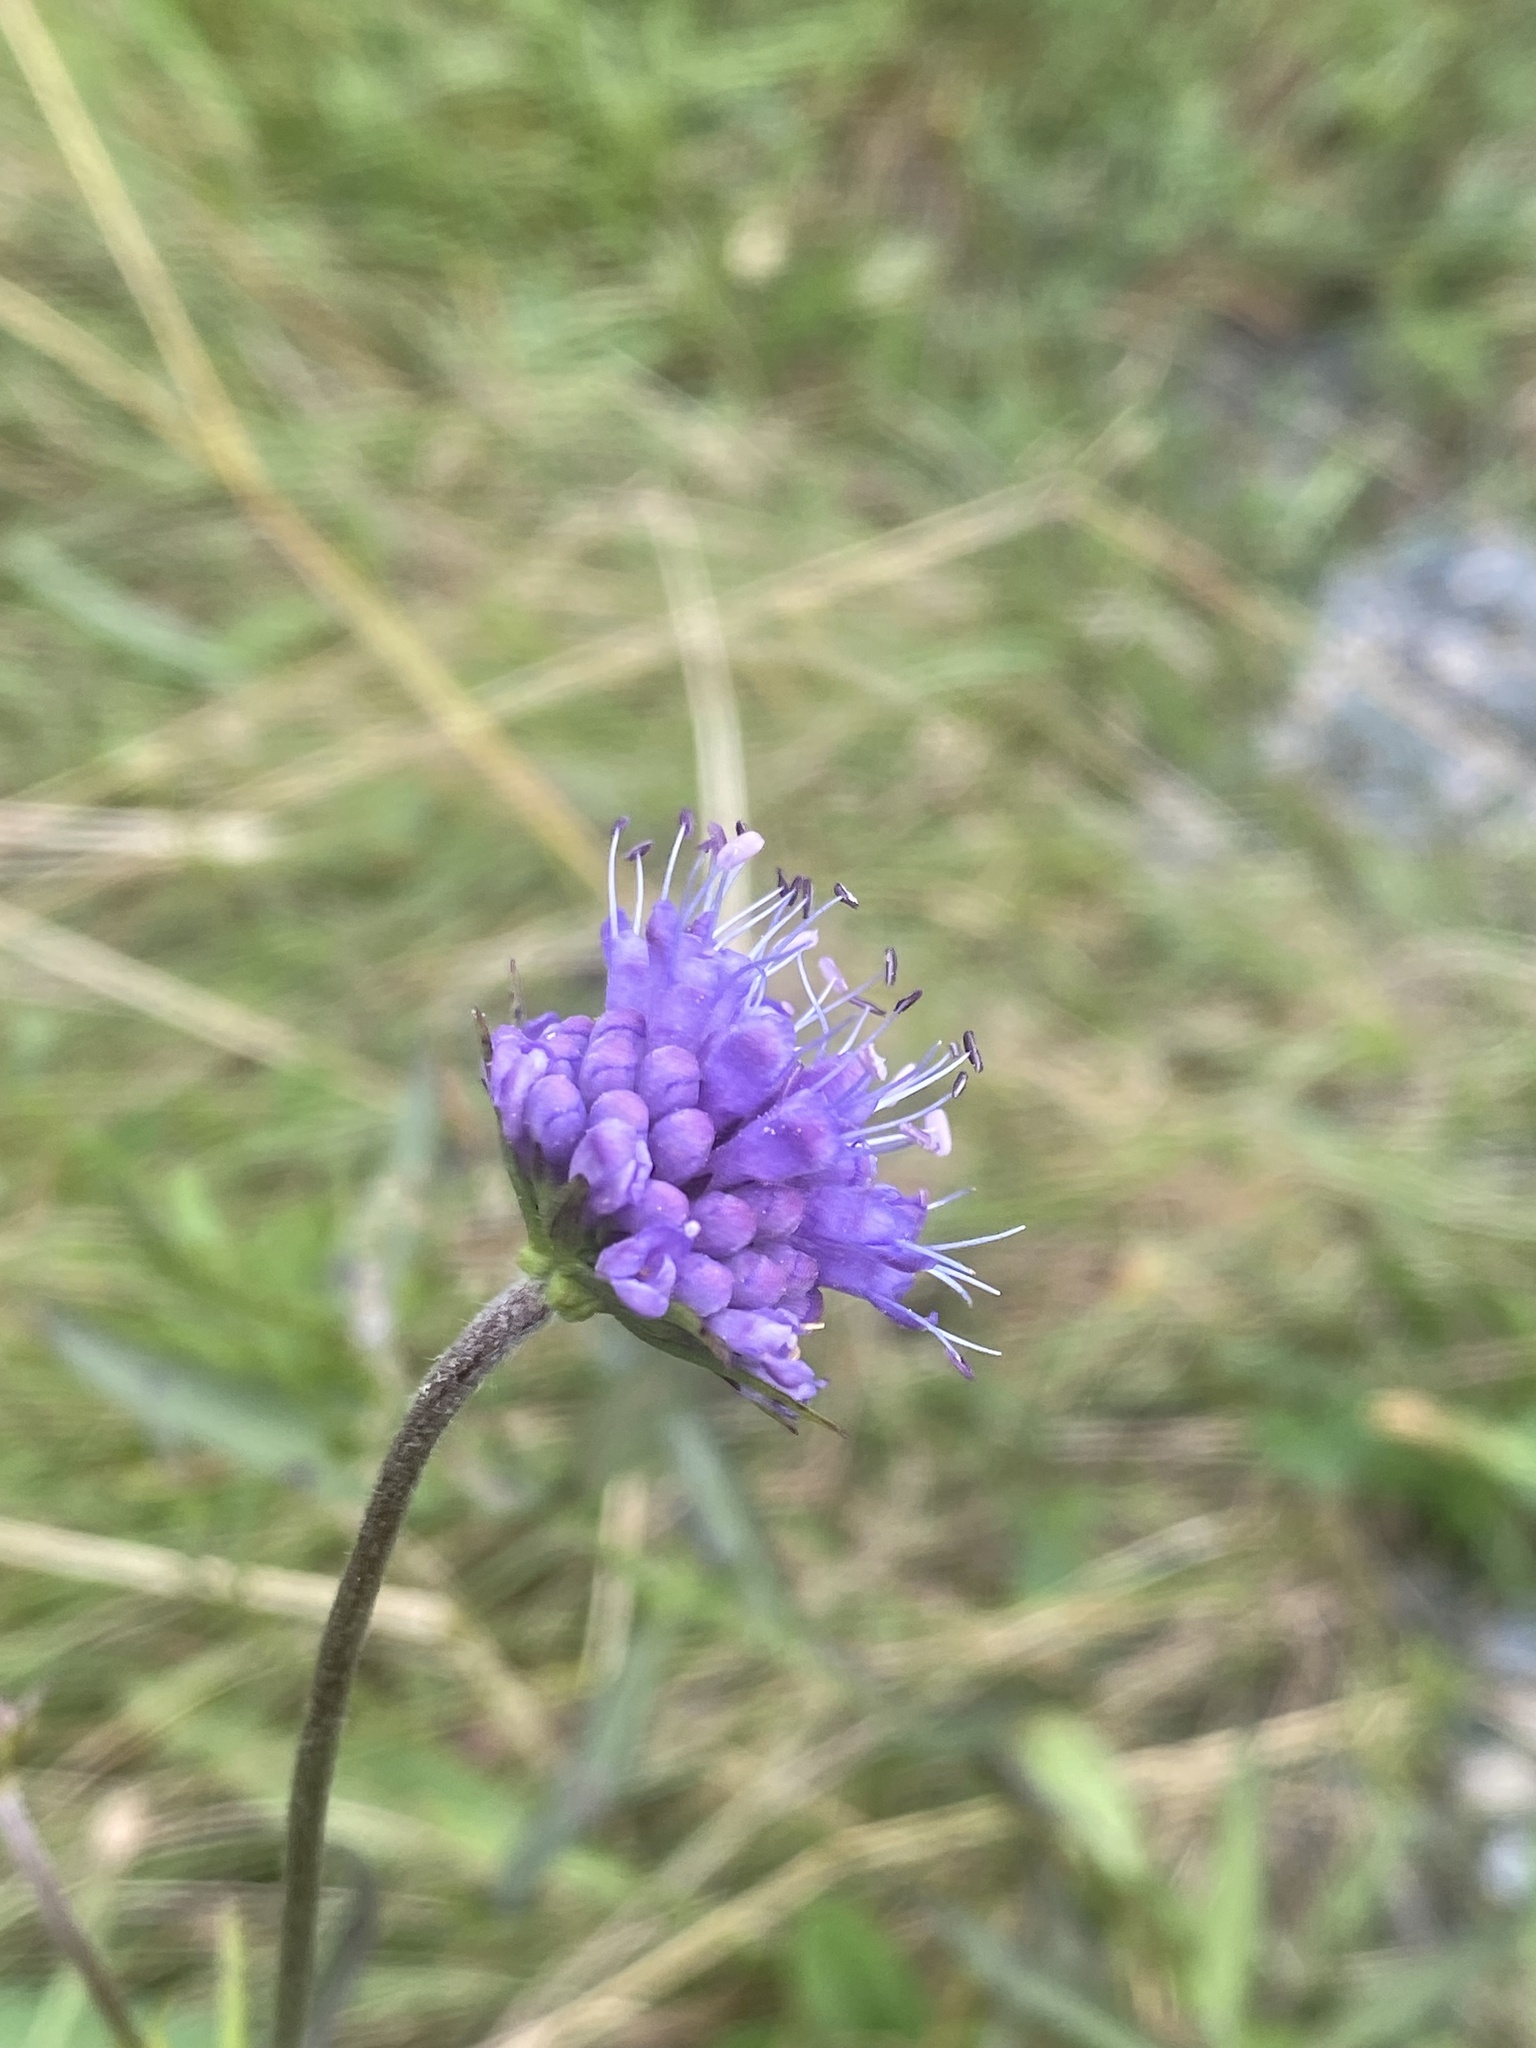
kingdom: Plantae
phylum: Tracheophyta
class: Magnoliopsida
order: Dipsacales
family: Caprifoliaceae
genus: Succisa
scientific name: Succisa pratensis
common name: Devil's-bit
